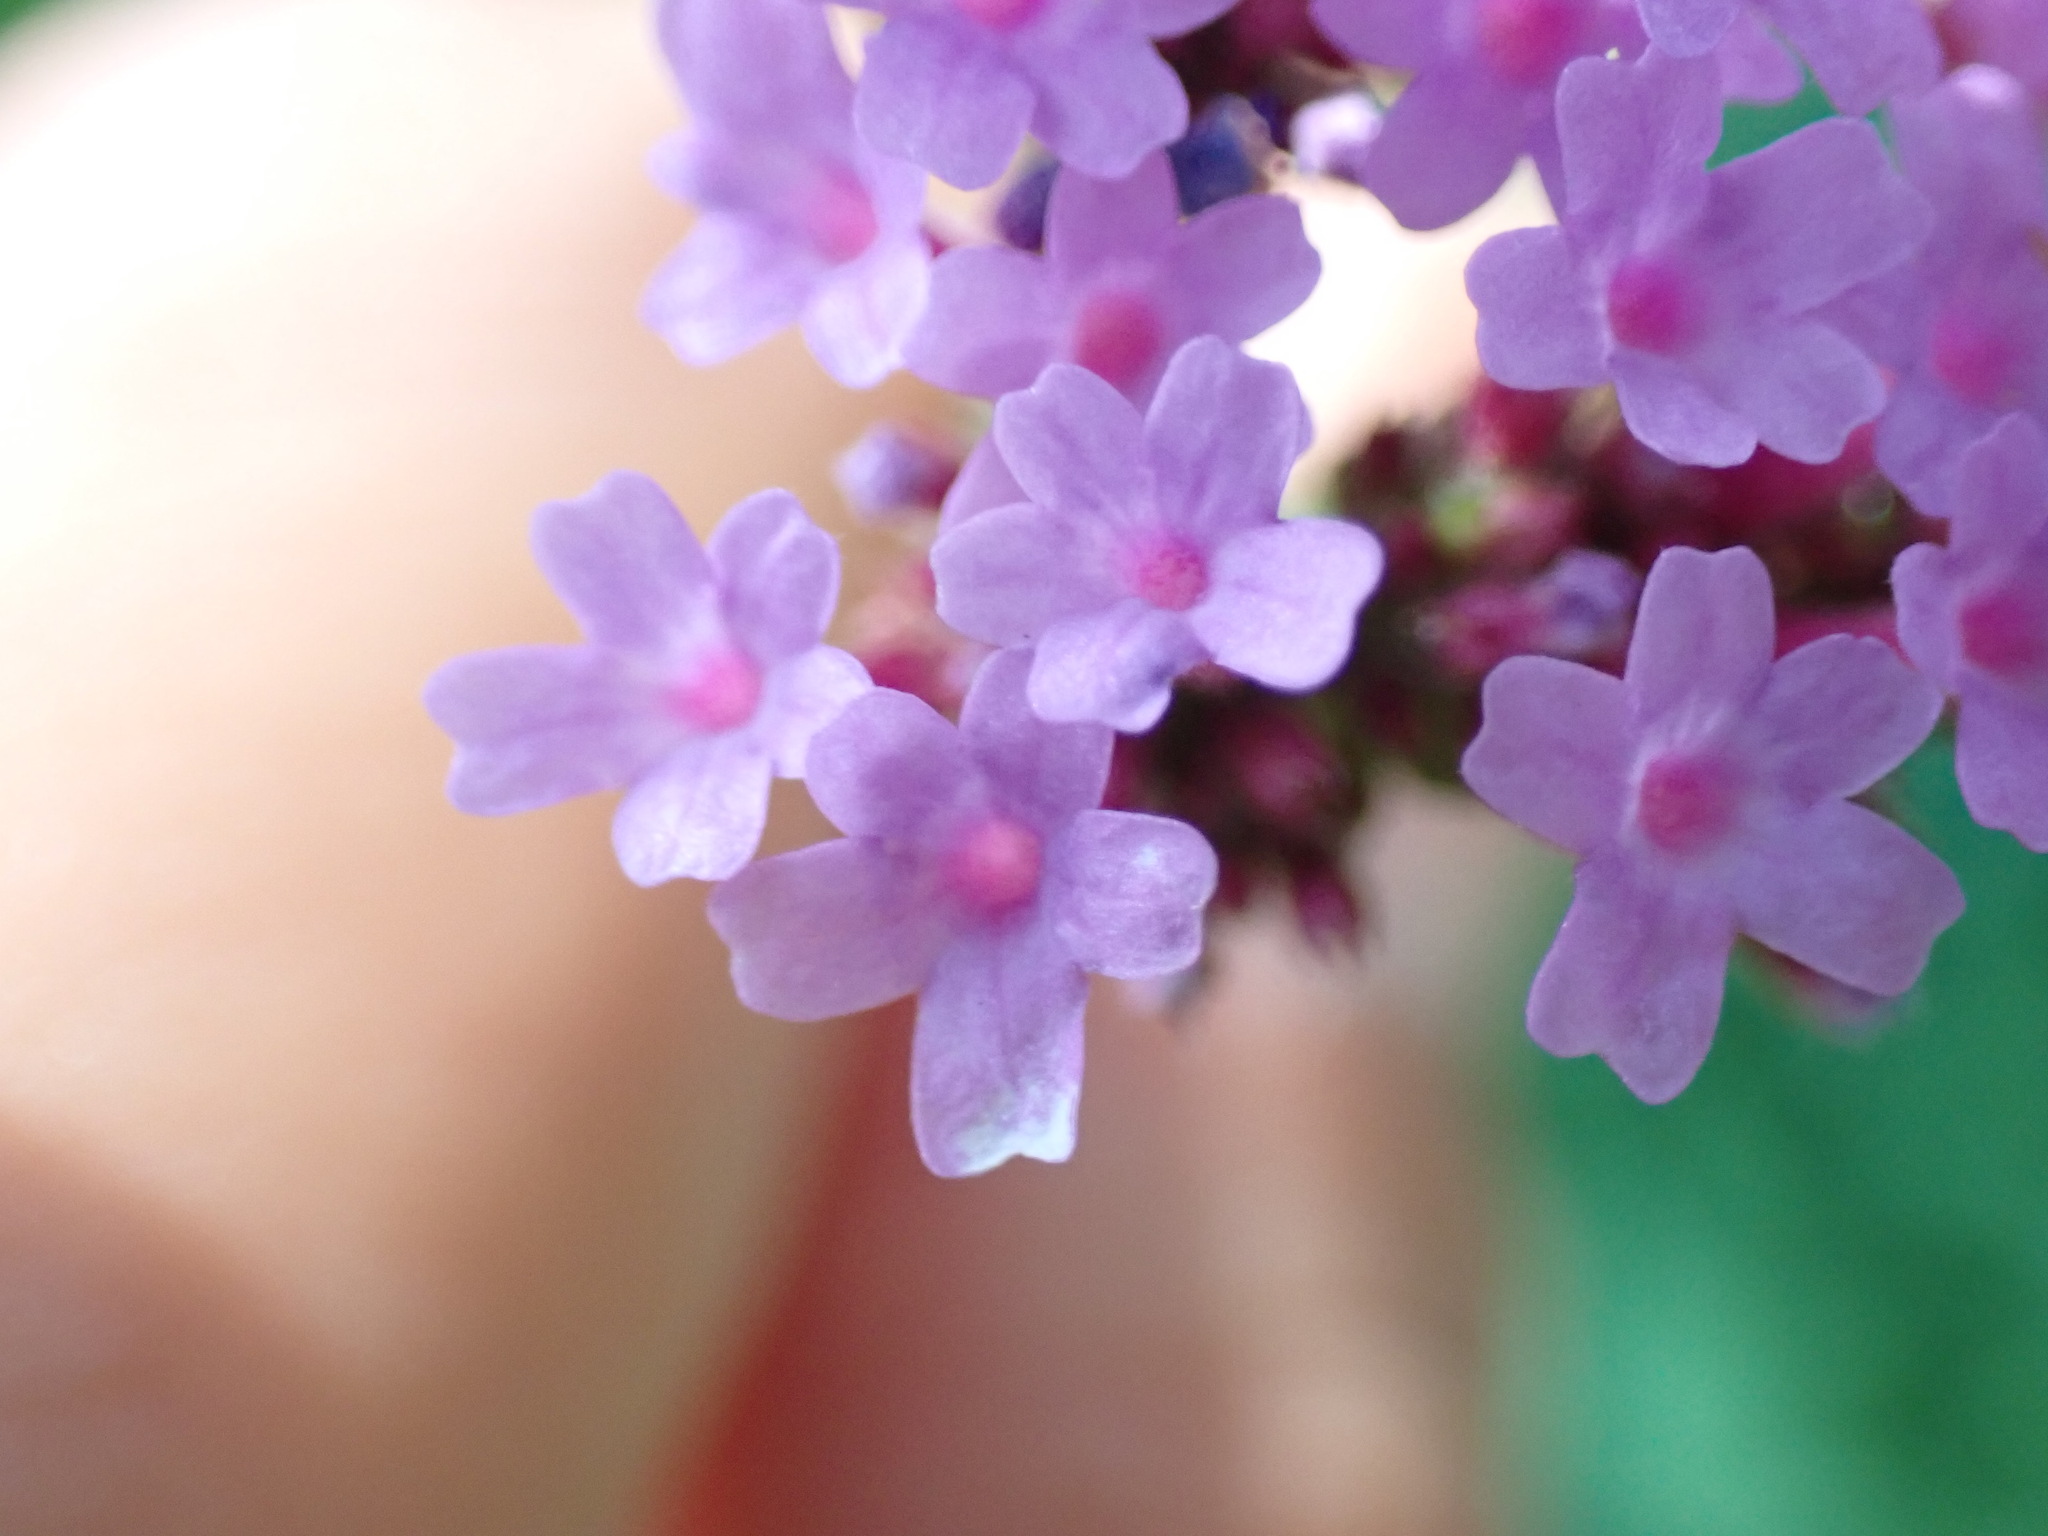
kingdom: Plantae
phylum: Tracheophyta
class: Magnoliopsida
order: Lamiales
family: Verbenaceae
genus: Verbena
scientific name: Verbena bonariensis
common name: Purpletop vervain
